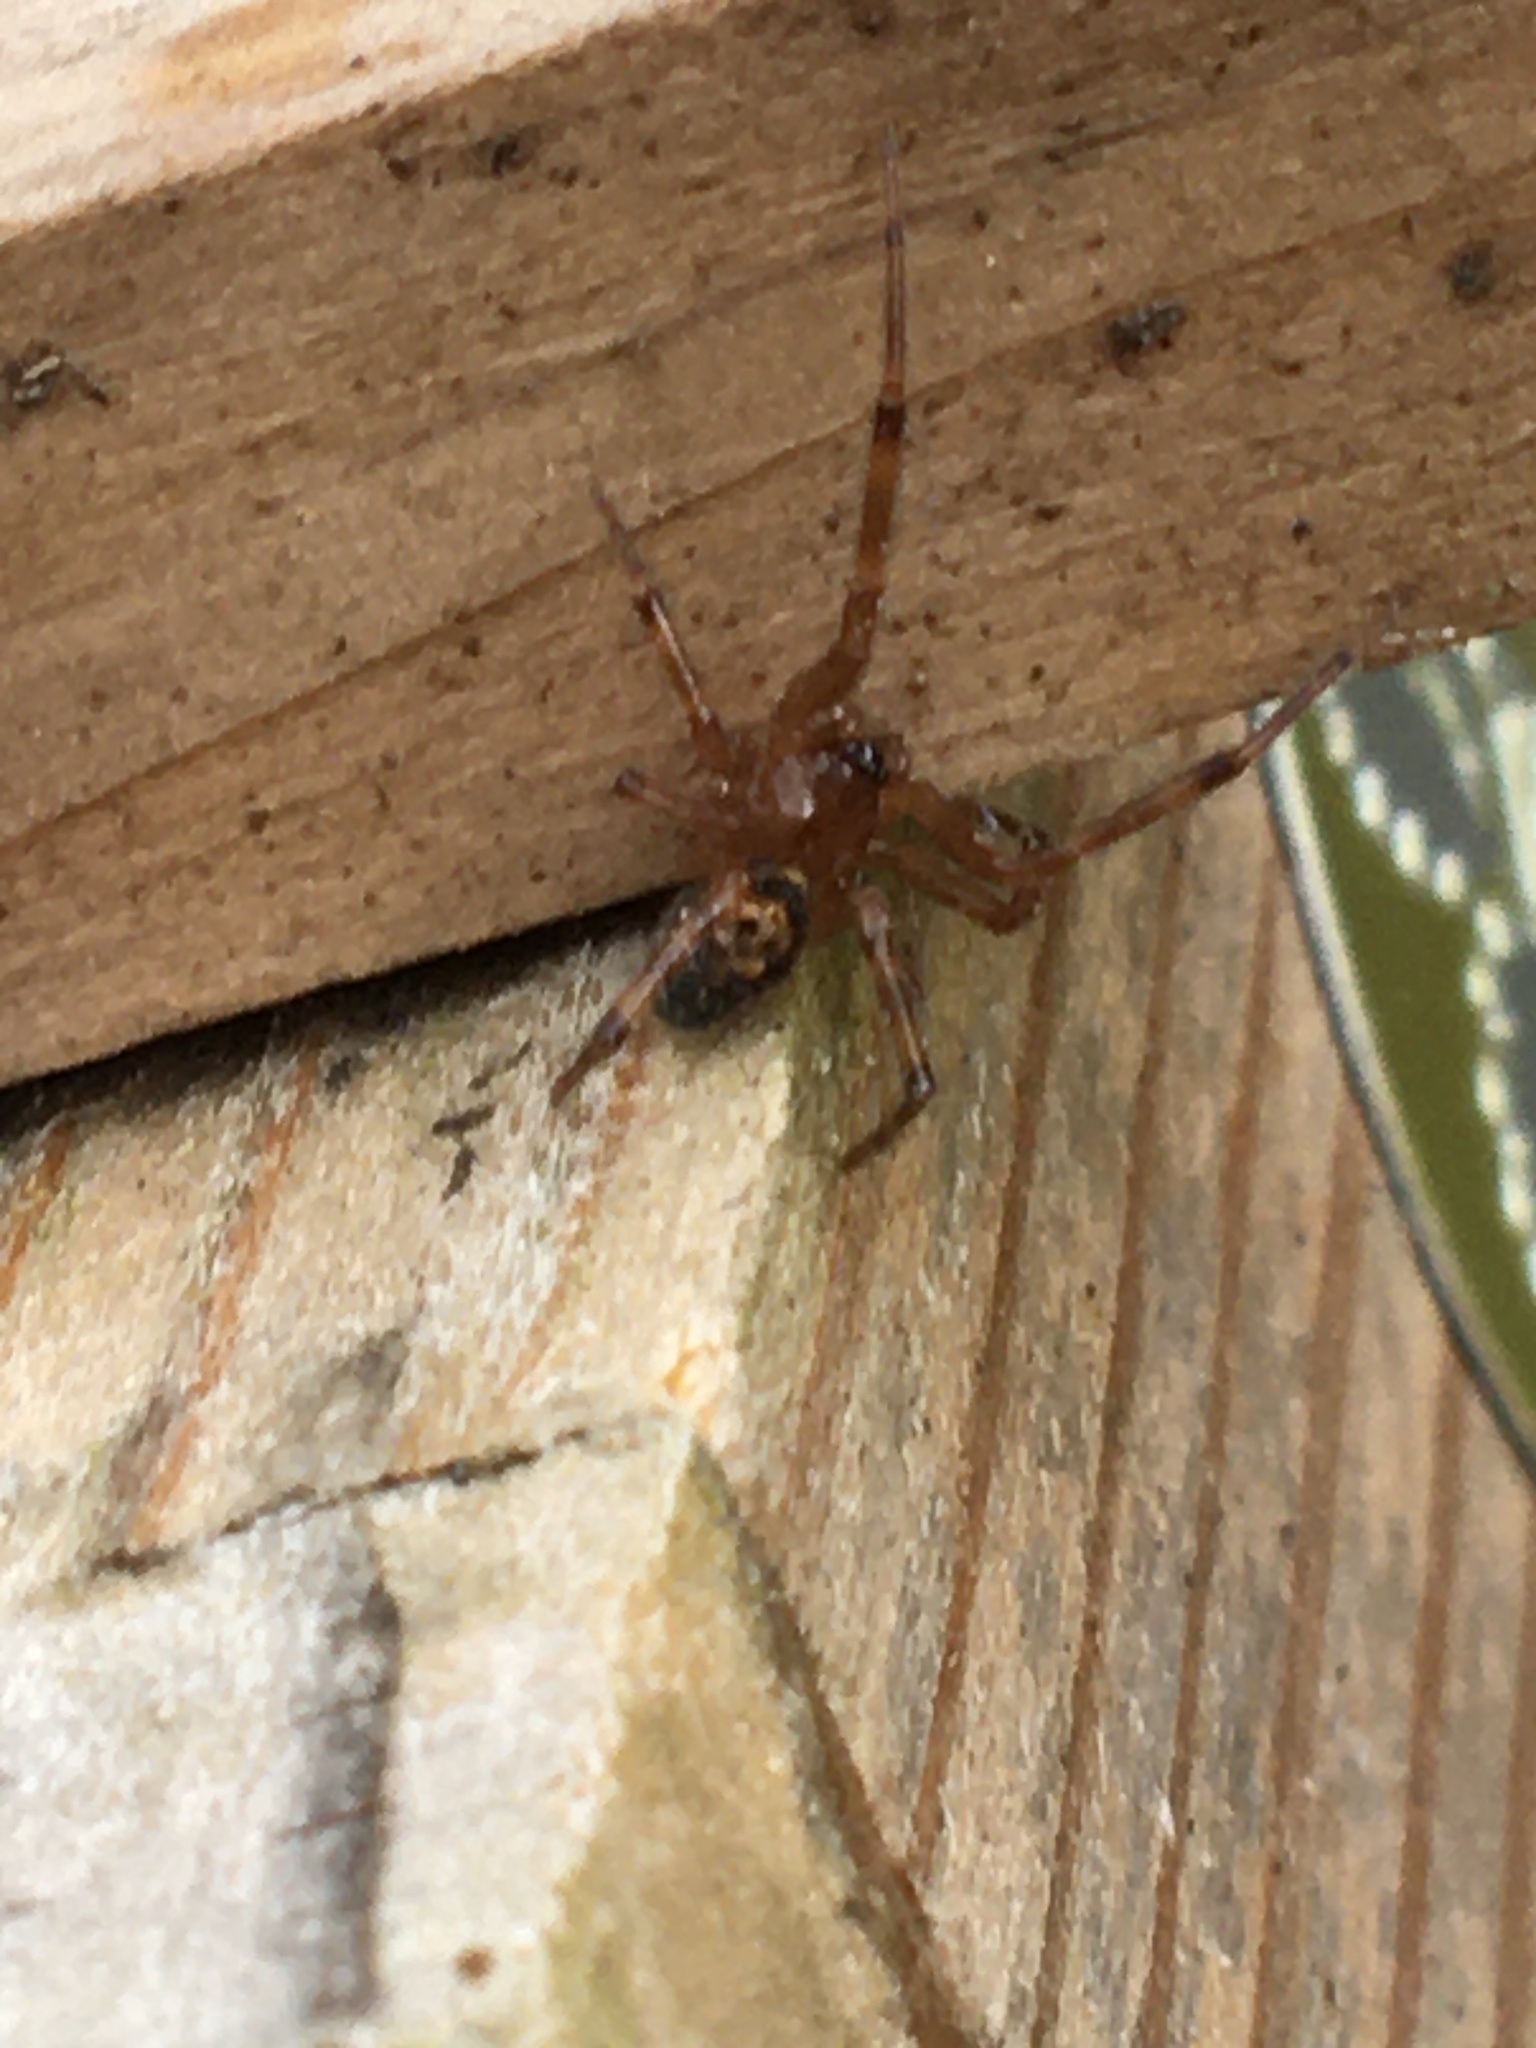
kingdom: Animalia
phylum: Arthropoda
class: Arachnida
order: Araneae
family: Theridiidae
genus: Steatoda
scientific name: Steatoda nobilis
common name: Cobweb weaver
